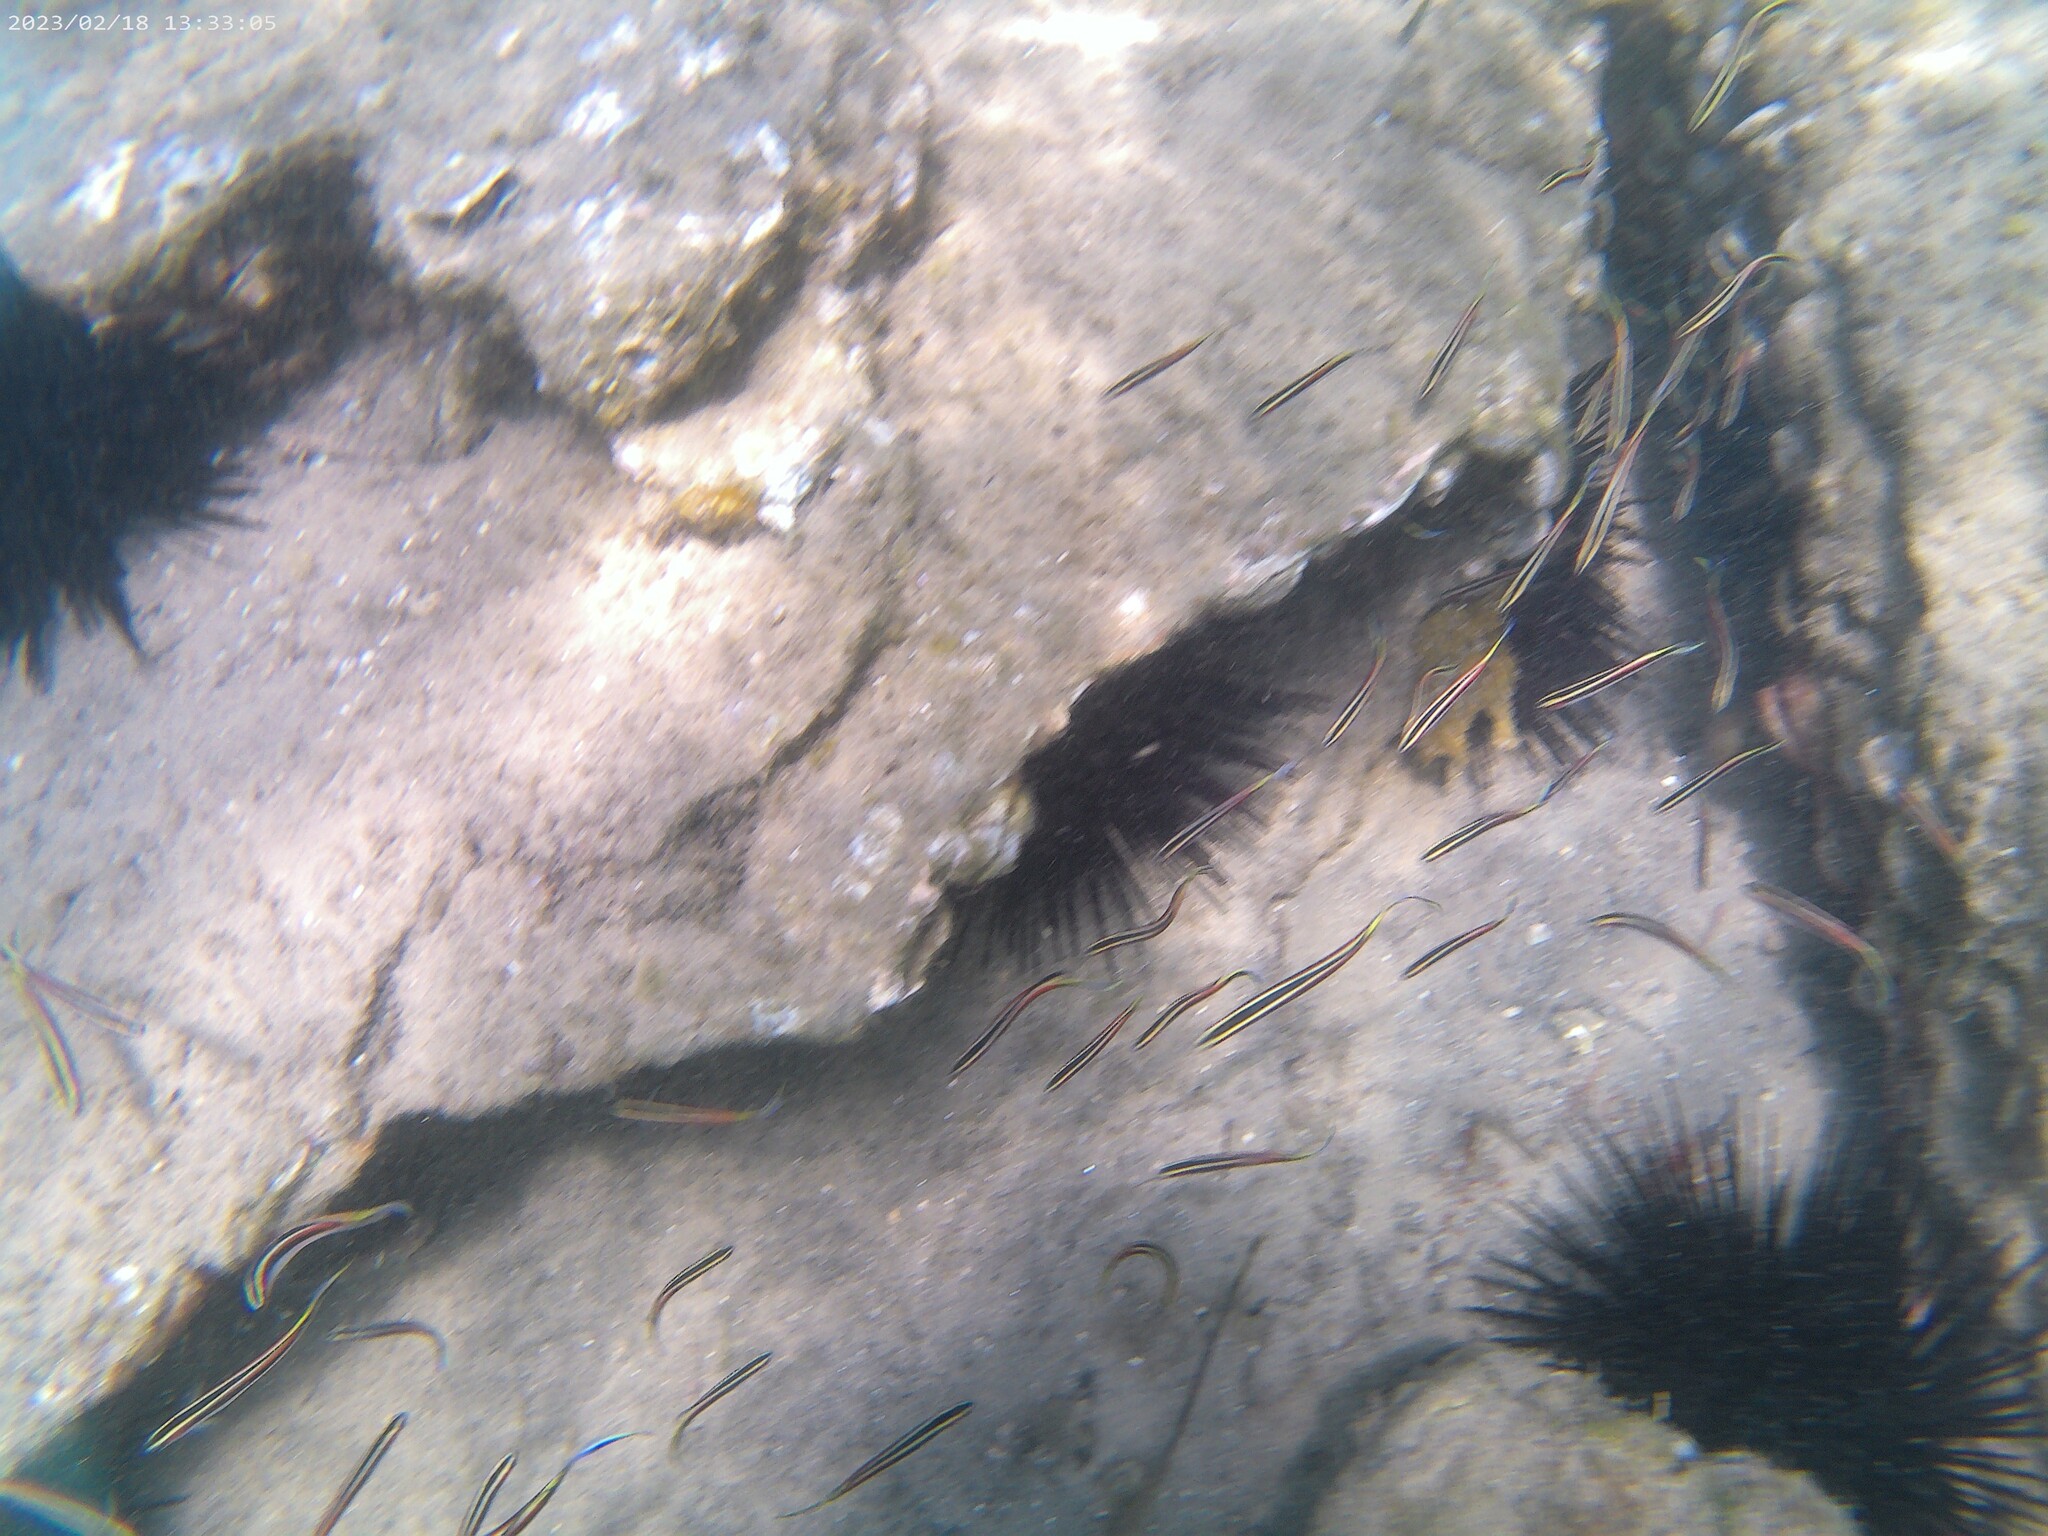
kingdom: Animalia
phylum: Chordata
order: Perciformes
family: Plesiopidae
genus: Trachinops
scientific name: Trachinops taeniatus
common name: Eastern hulafish
